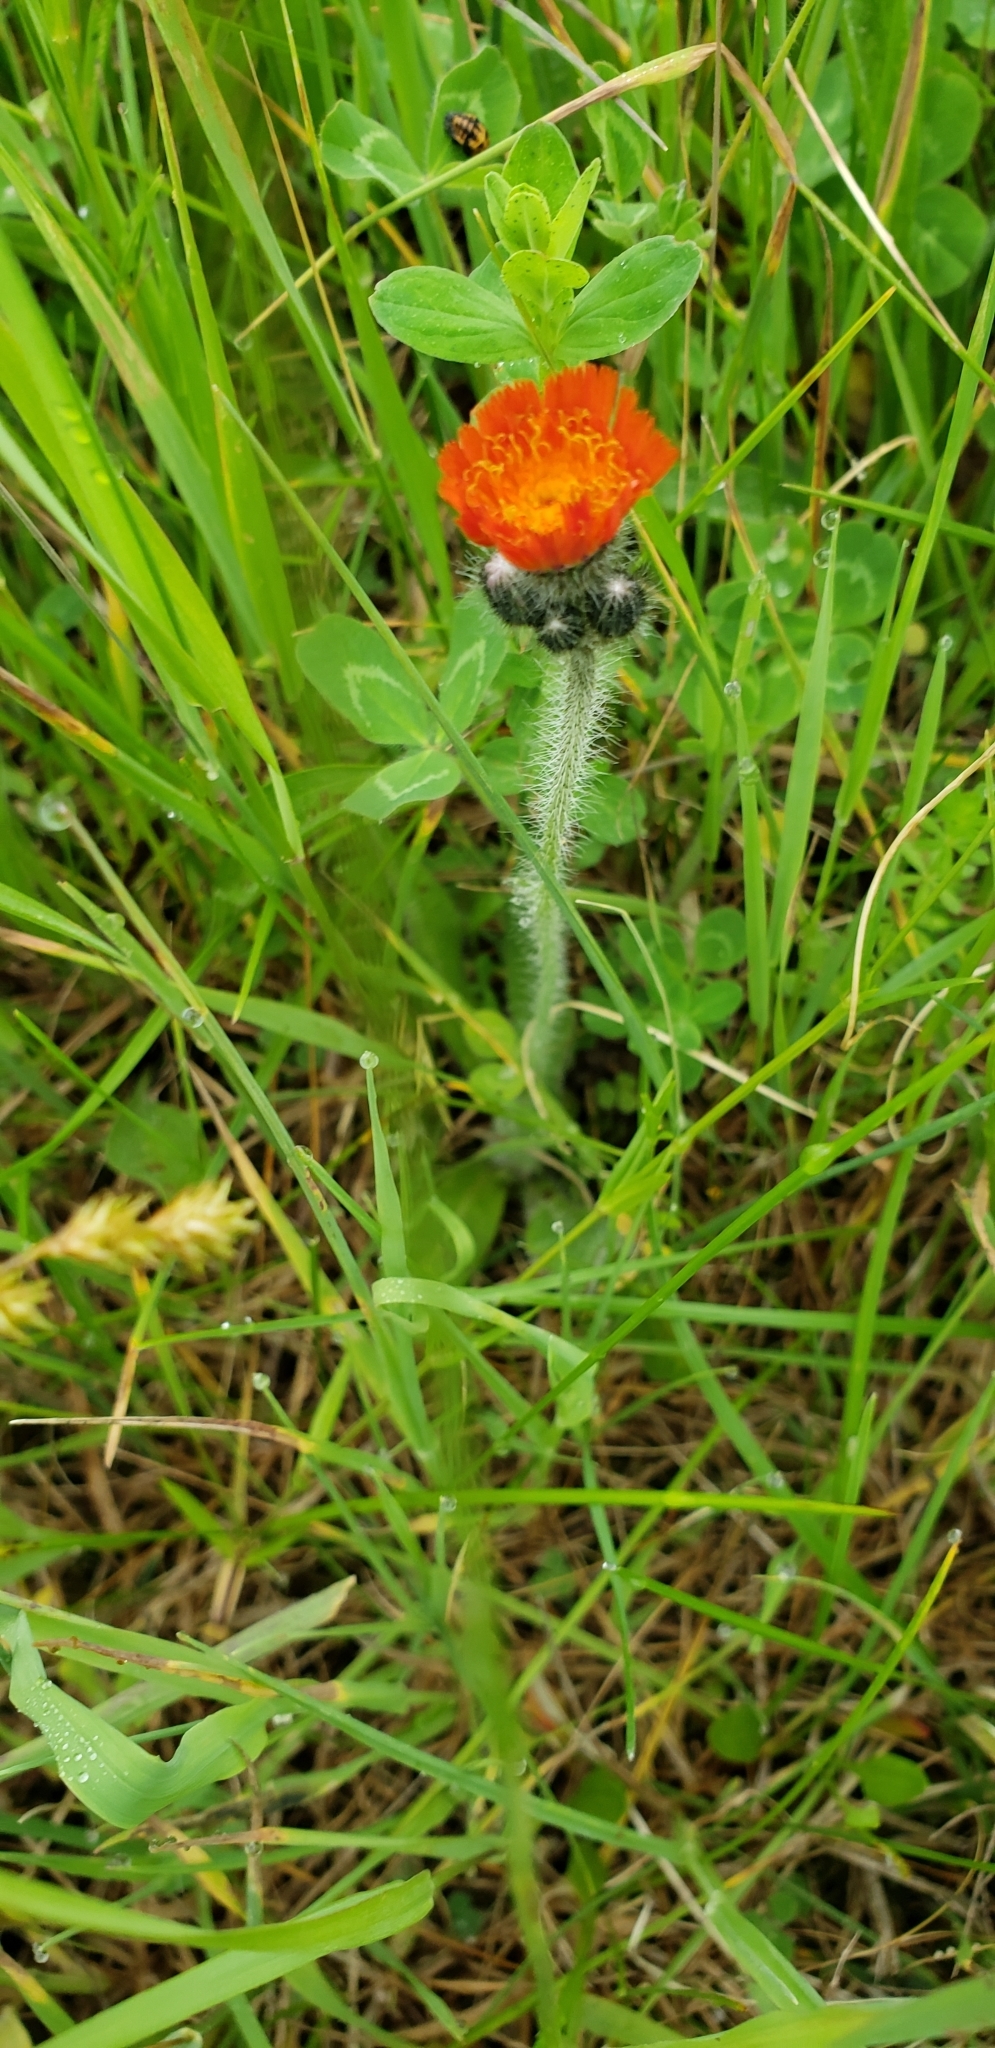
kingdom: Plantae
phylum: Tracheophyta
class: Magnoliopsida
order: Asterales
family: Asteraceae
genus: Pilosella
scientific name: Pilosella aurantiaca
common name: Fox-and-cubs
